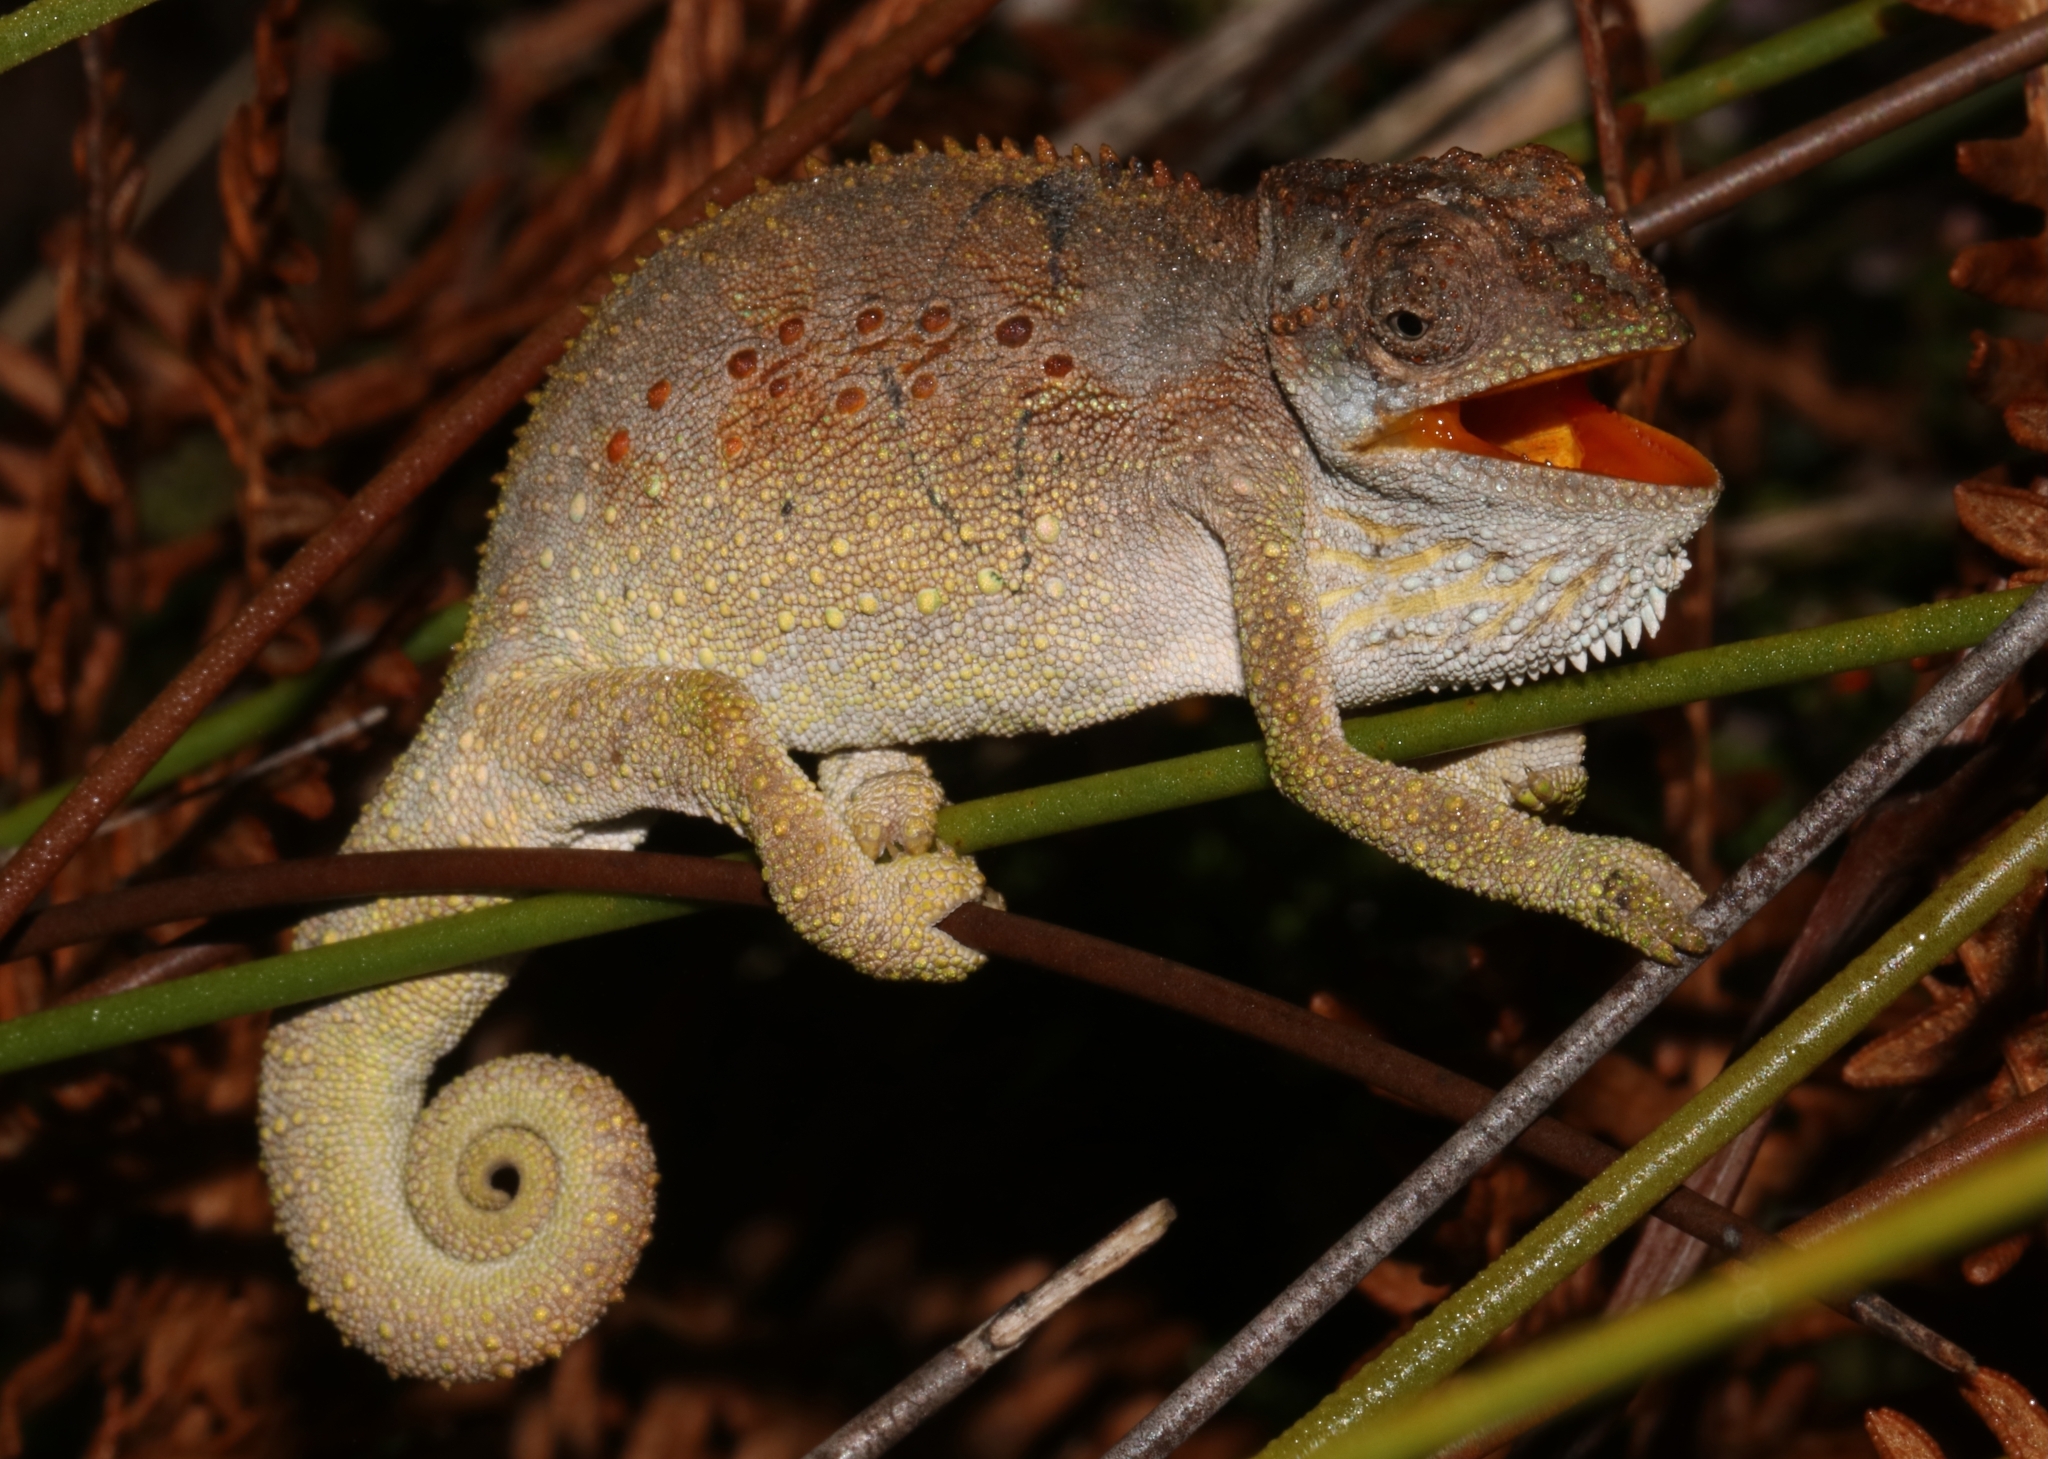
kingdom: Animalia
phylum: Chordata
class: Squamata
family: Chamaeleonidae
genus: Bradypodion
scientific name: Bradypodion gutturale
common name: Little karoo dwarf chameleon
